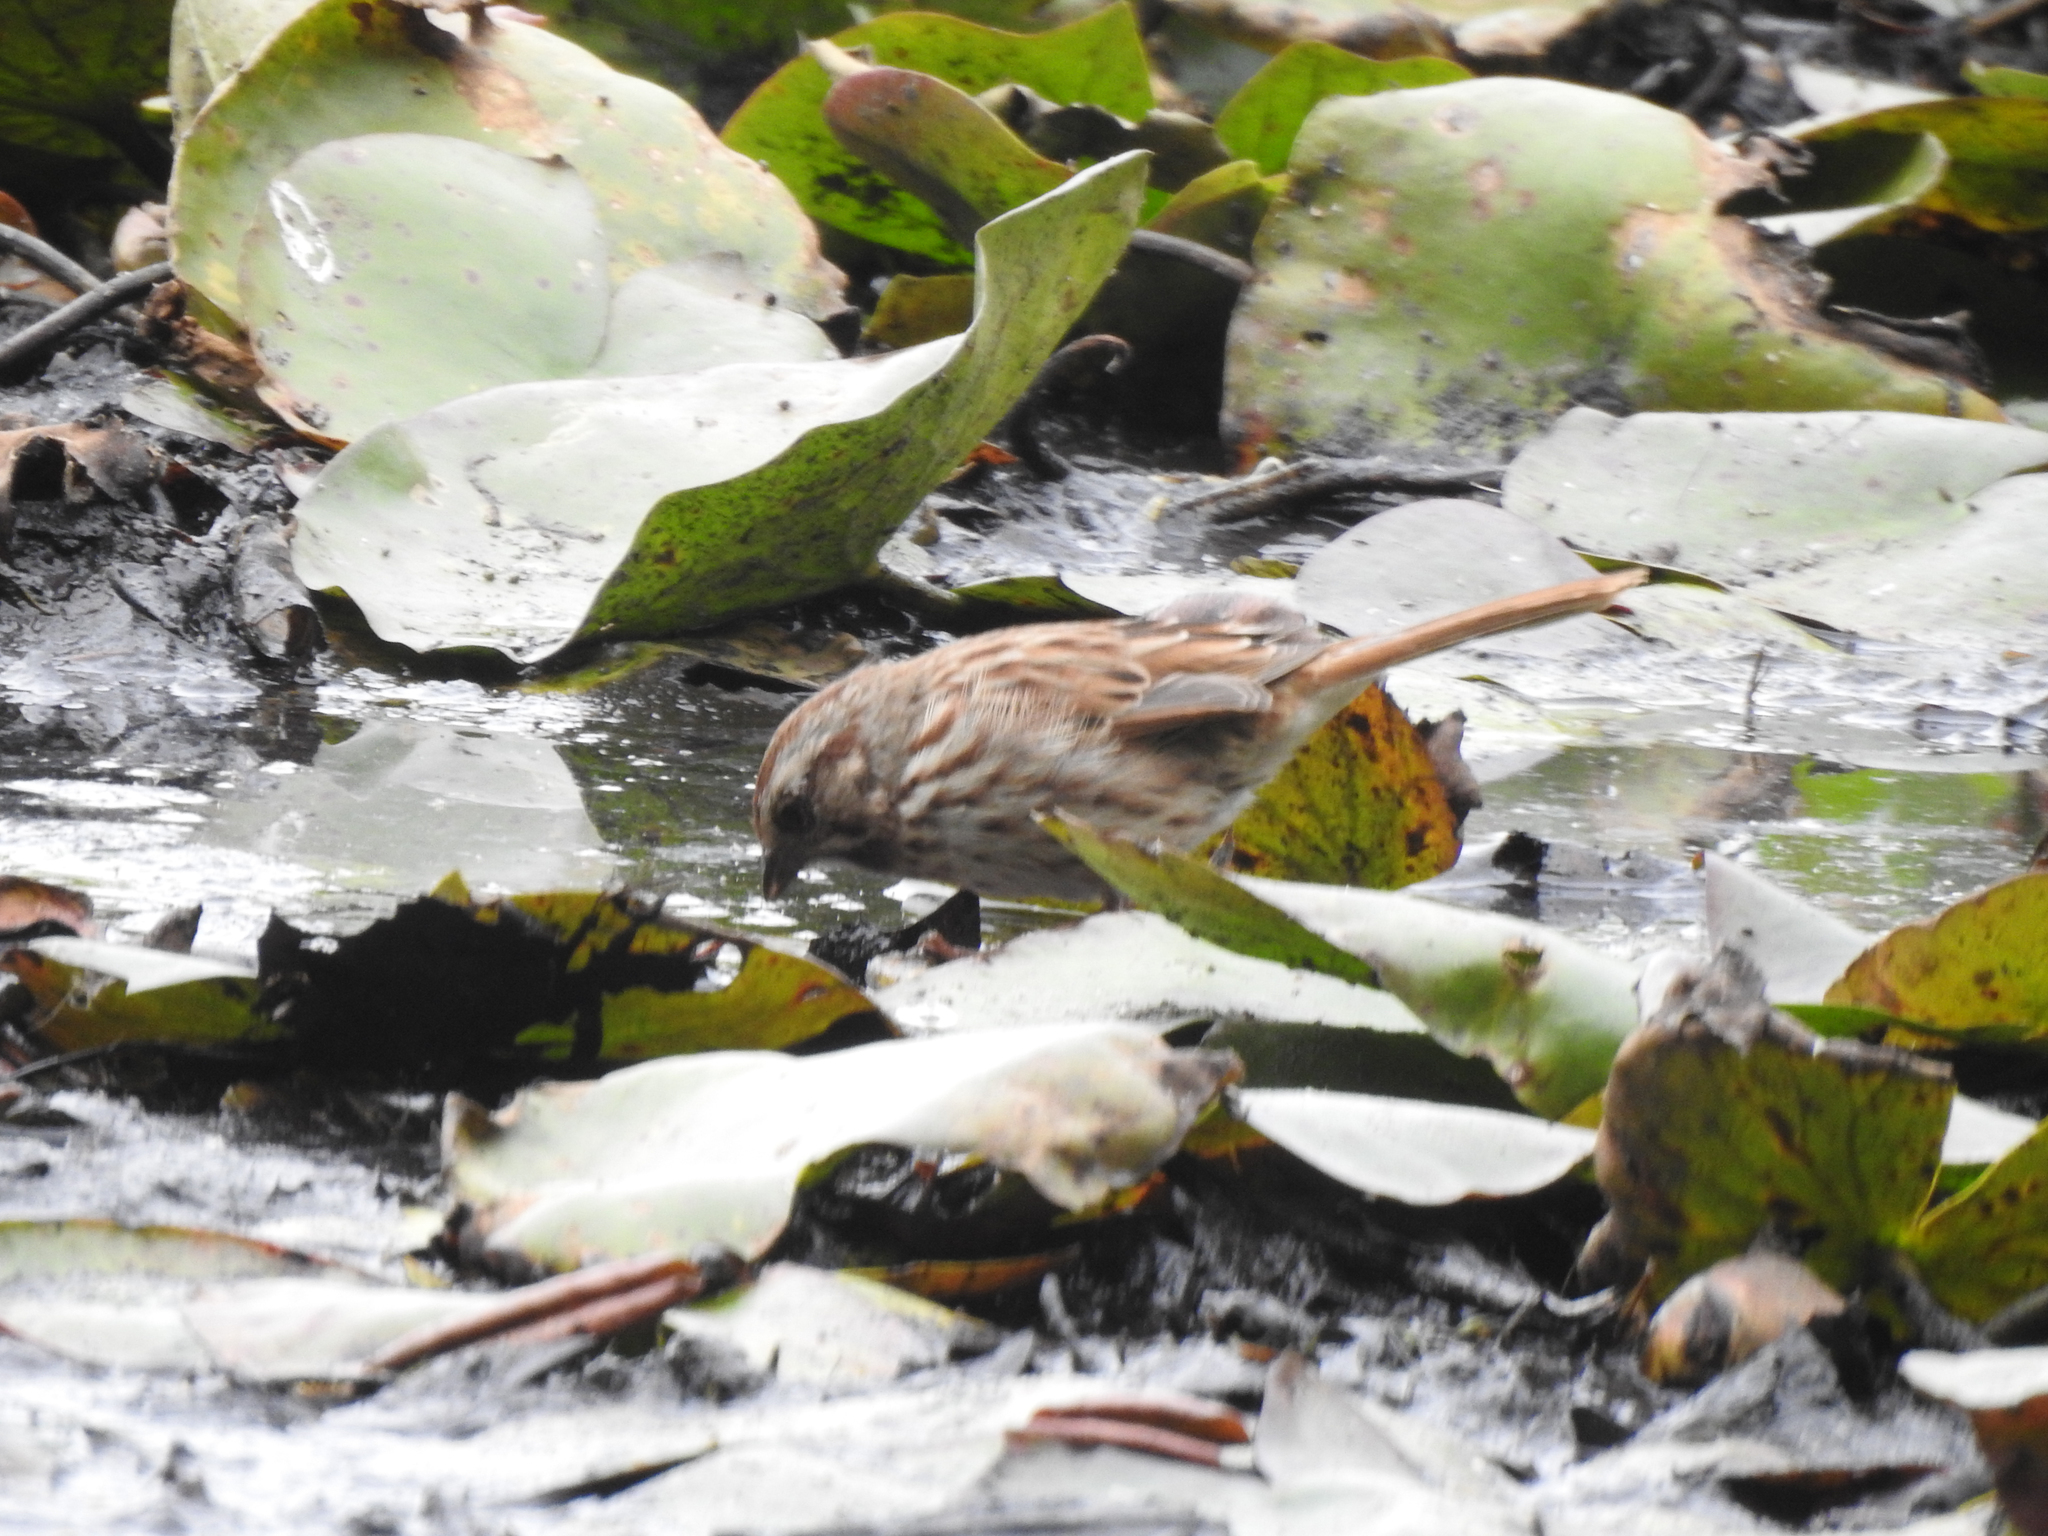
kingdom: Animalia
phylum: Chordata
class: Aves
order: Passeriformes
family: Passerellidae
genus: Melospiza
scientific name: Melospiza melodia
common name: Song sparrow
